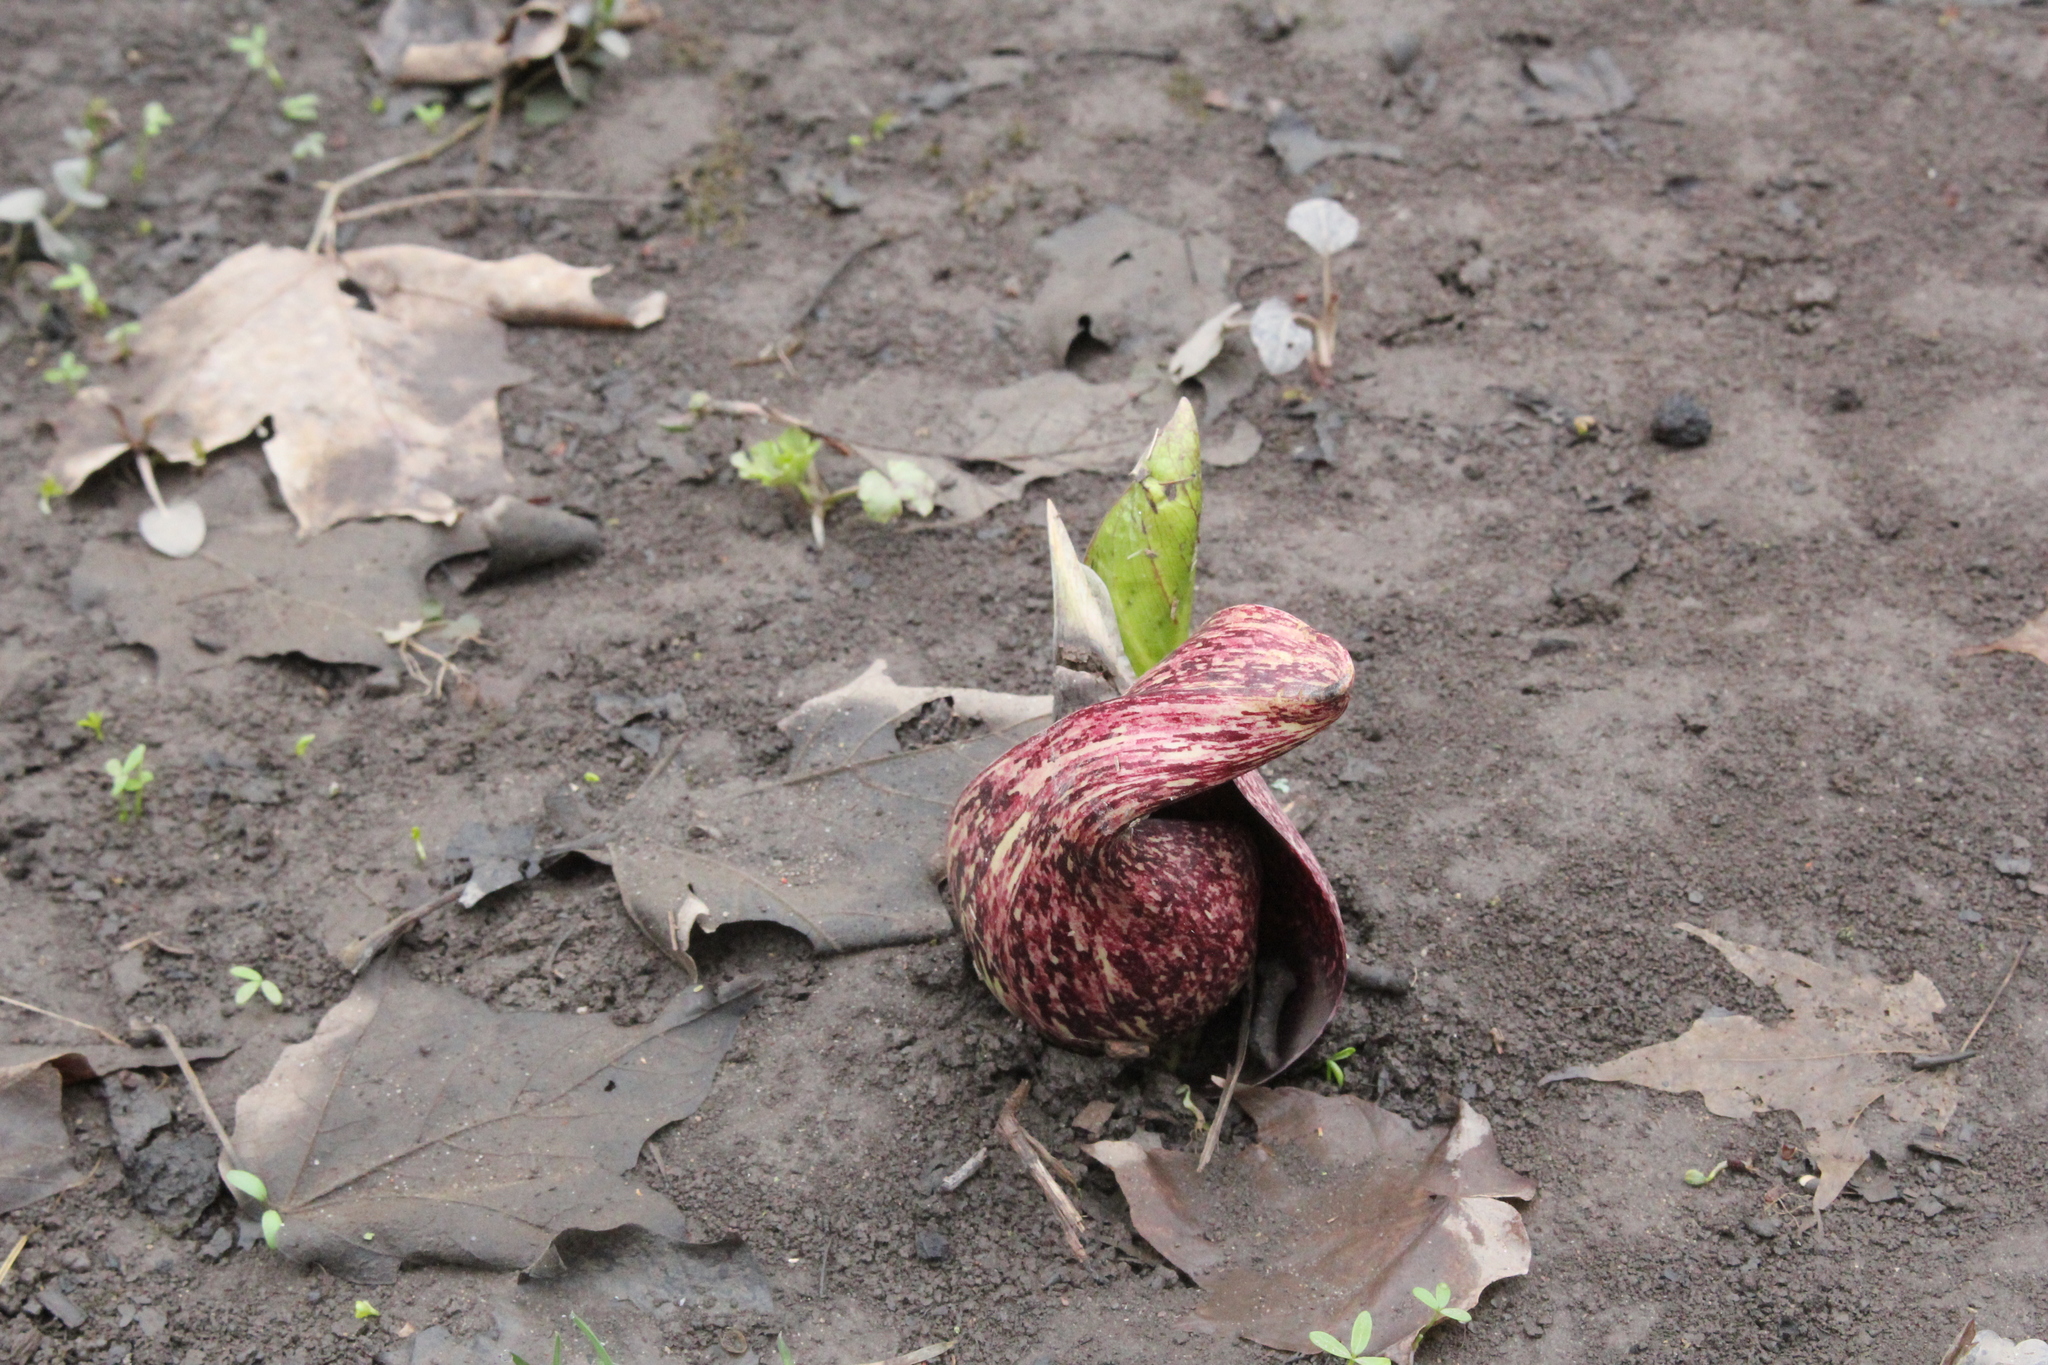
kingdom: Plantae
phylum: Tracheophyta
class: Liliopsida
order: Alismatales
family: Araceae
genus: Symplocarpus
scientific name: Symplocarpus foetidus
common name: Eastern skunk cabbage
